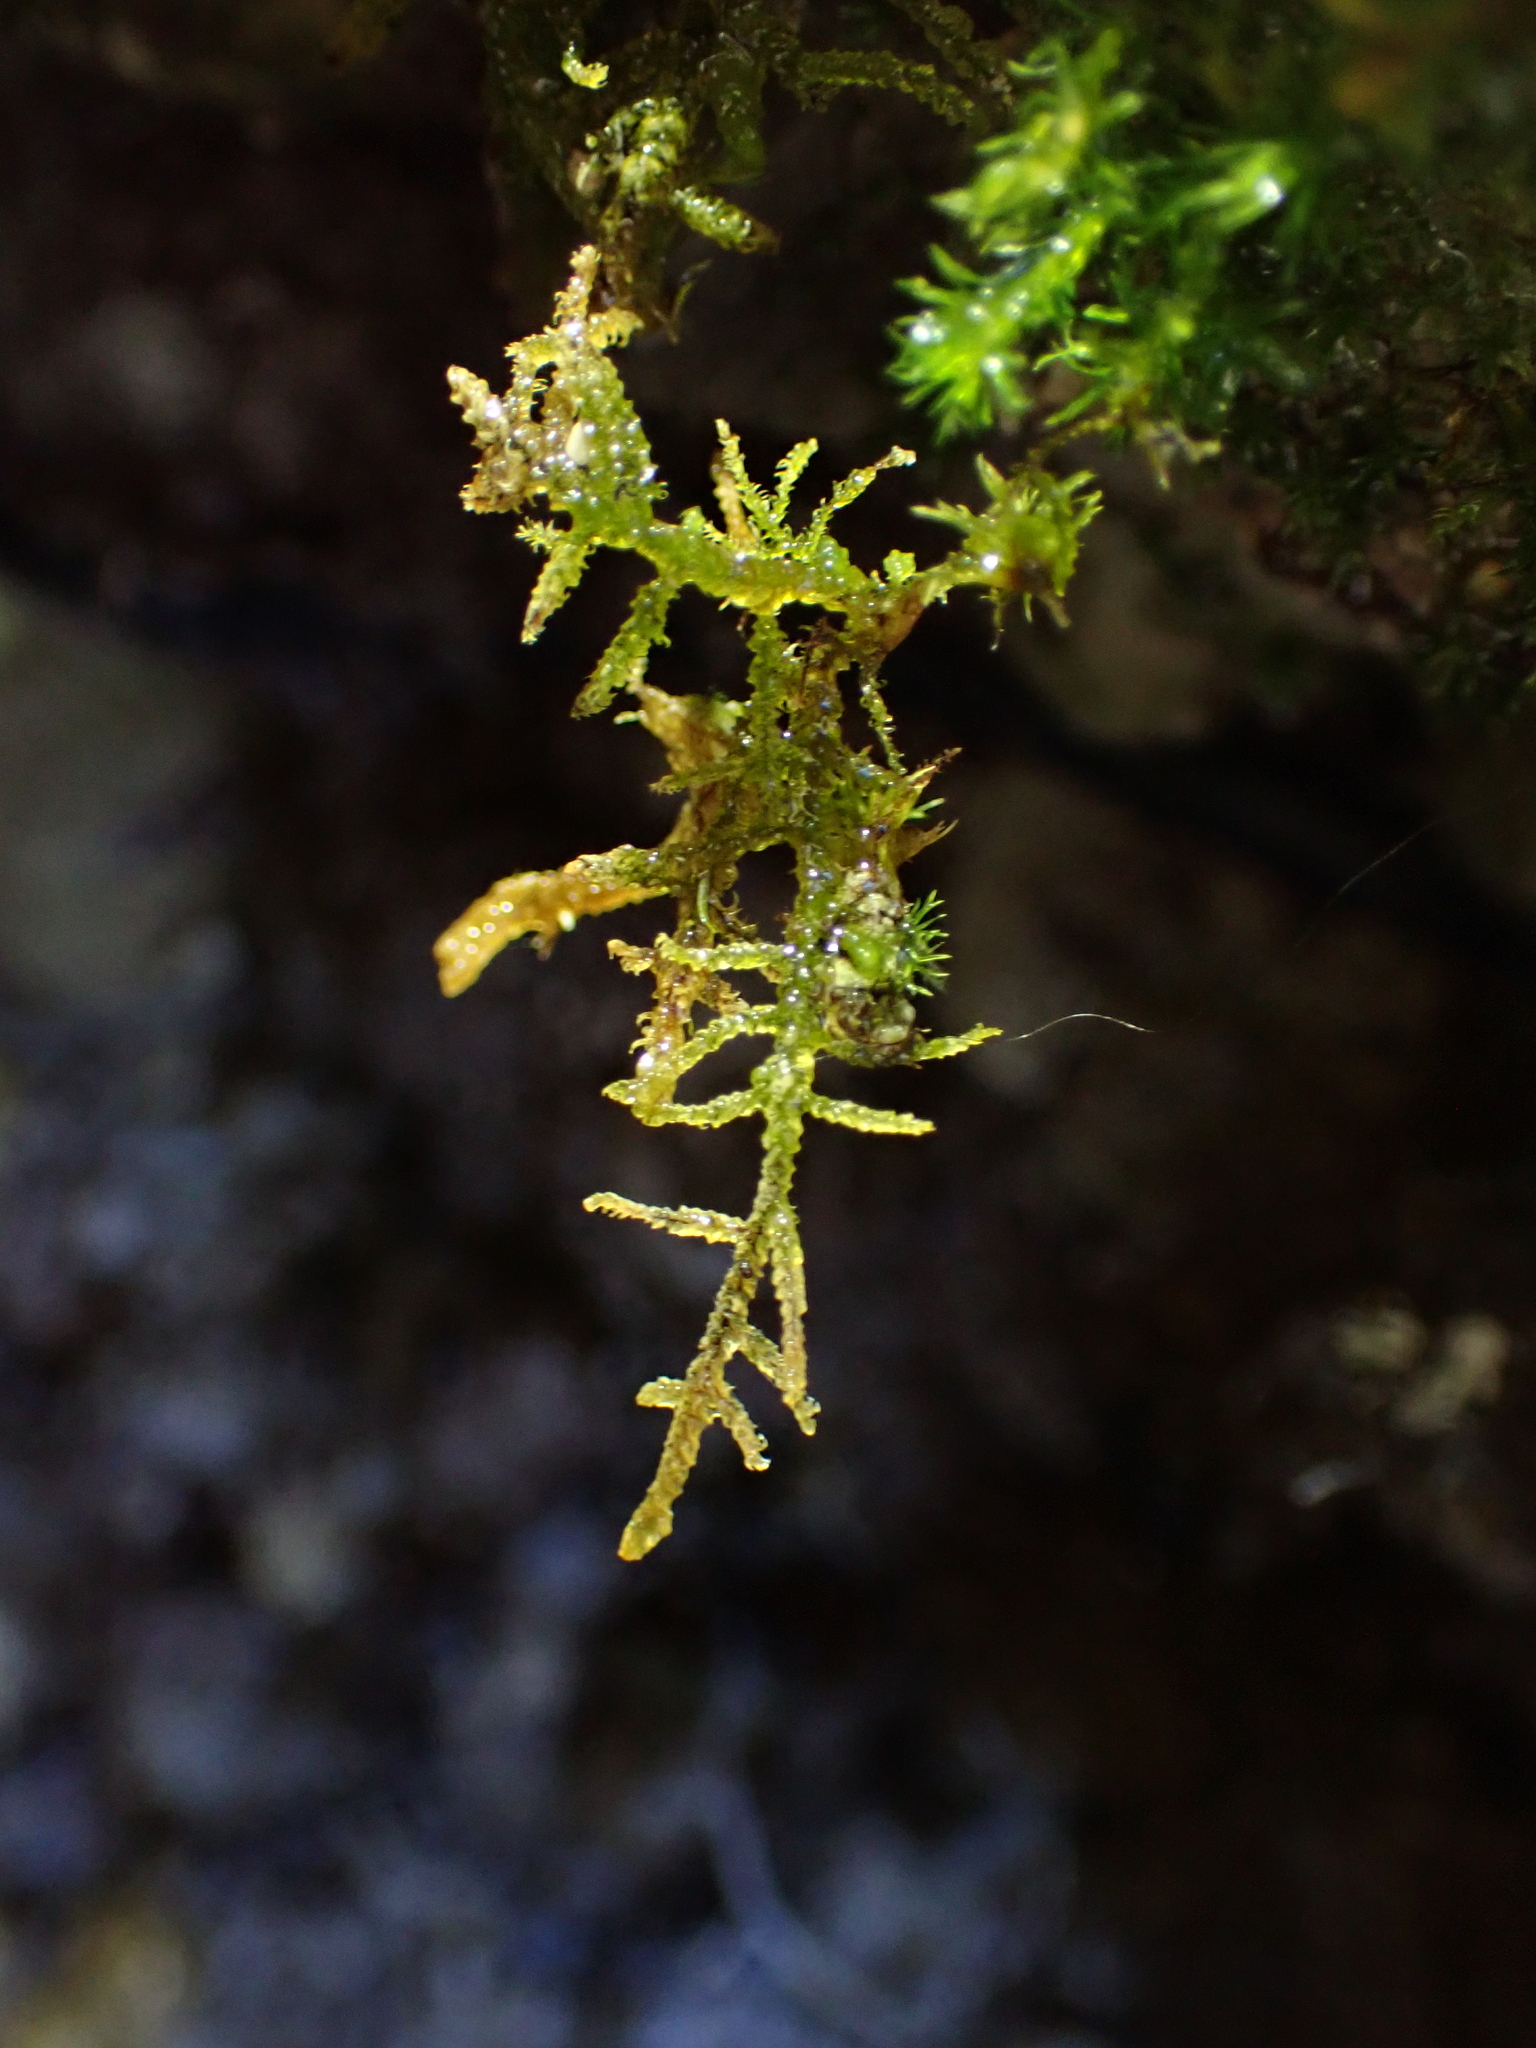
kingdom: Plantae
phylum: Bryophyta
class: Bryopsida
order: Hypnales
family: Amblystegiaceae
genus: Palustriella
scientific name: Palustriella commutata
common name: Curled hook-moss
